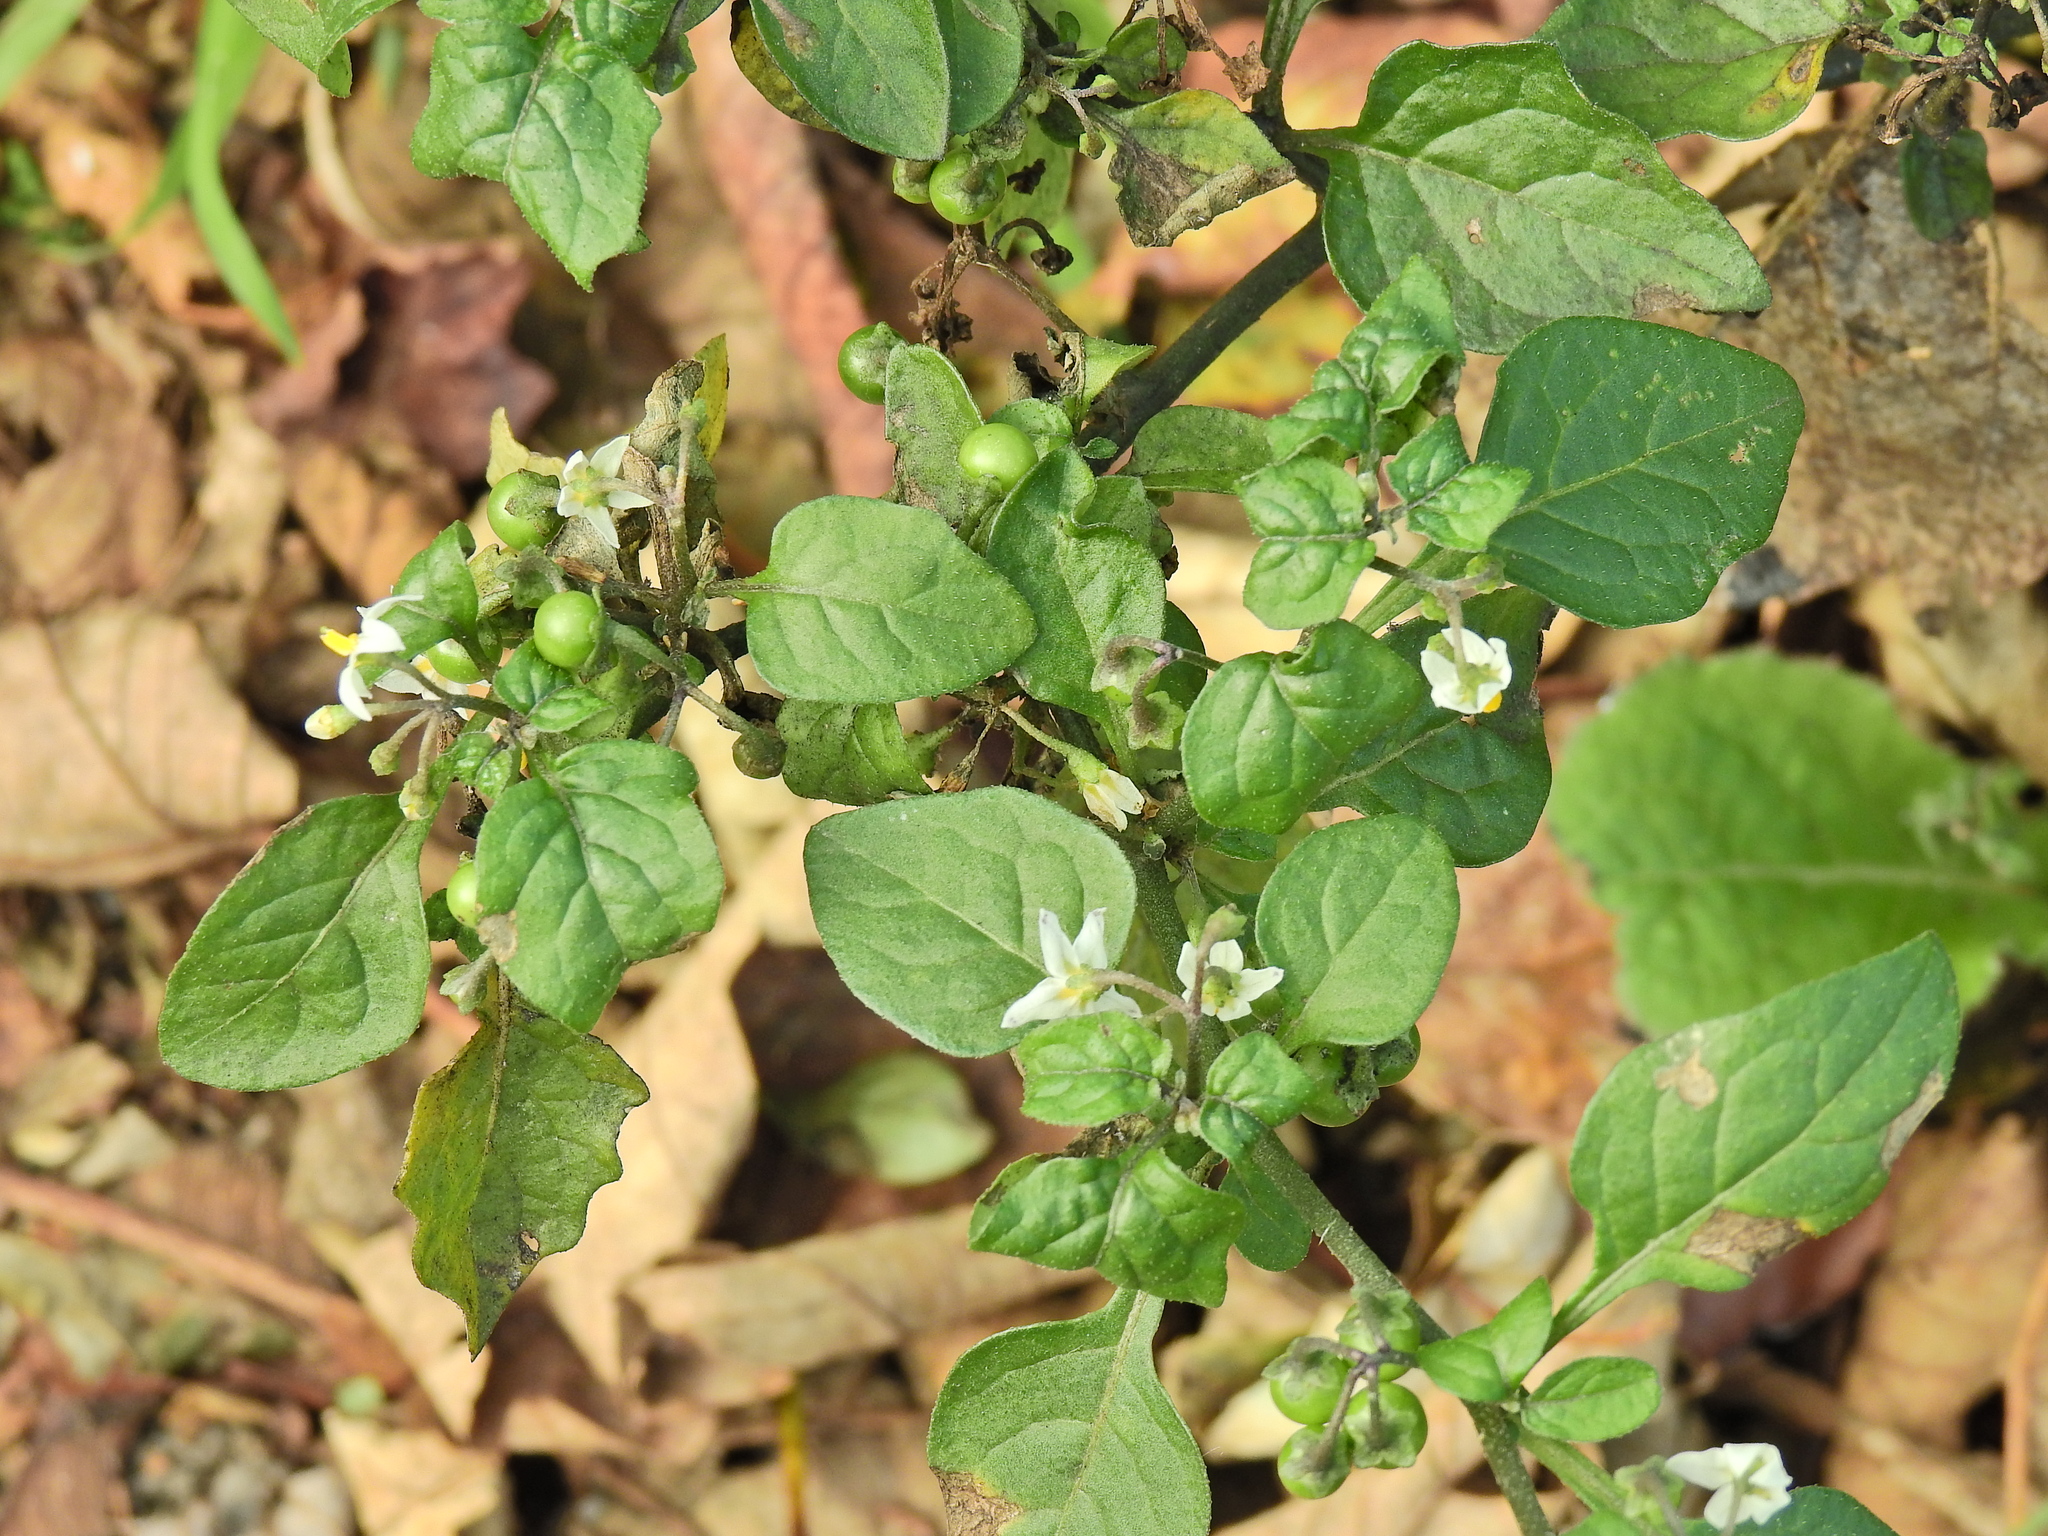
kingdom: Plantae
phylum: Tracheophyta
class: Magnoliopsida
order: Solanales
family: Solanaceae
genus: Solanum
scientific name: Solanum nigrum
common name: Black nightshade
